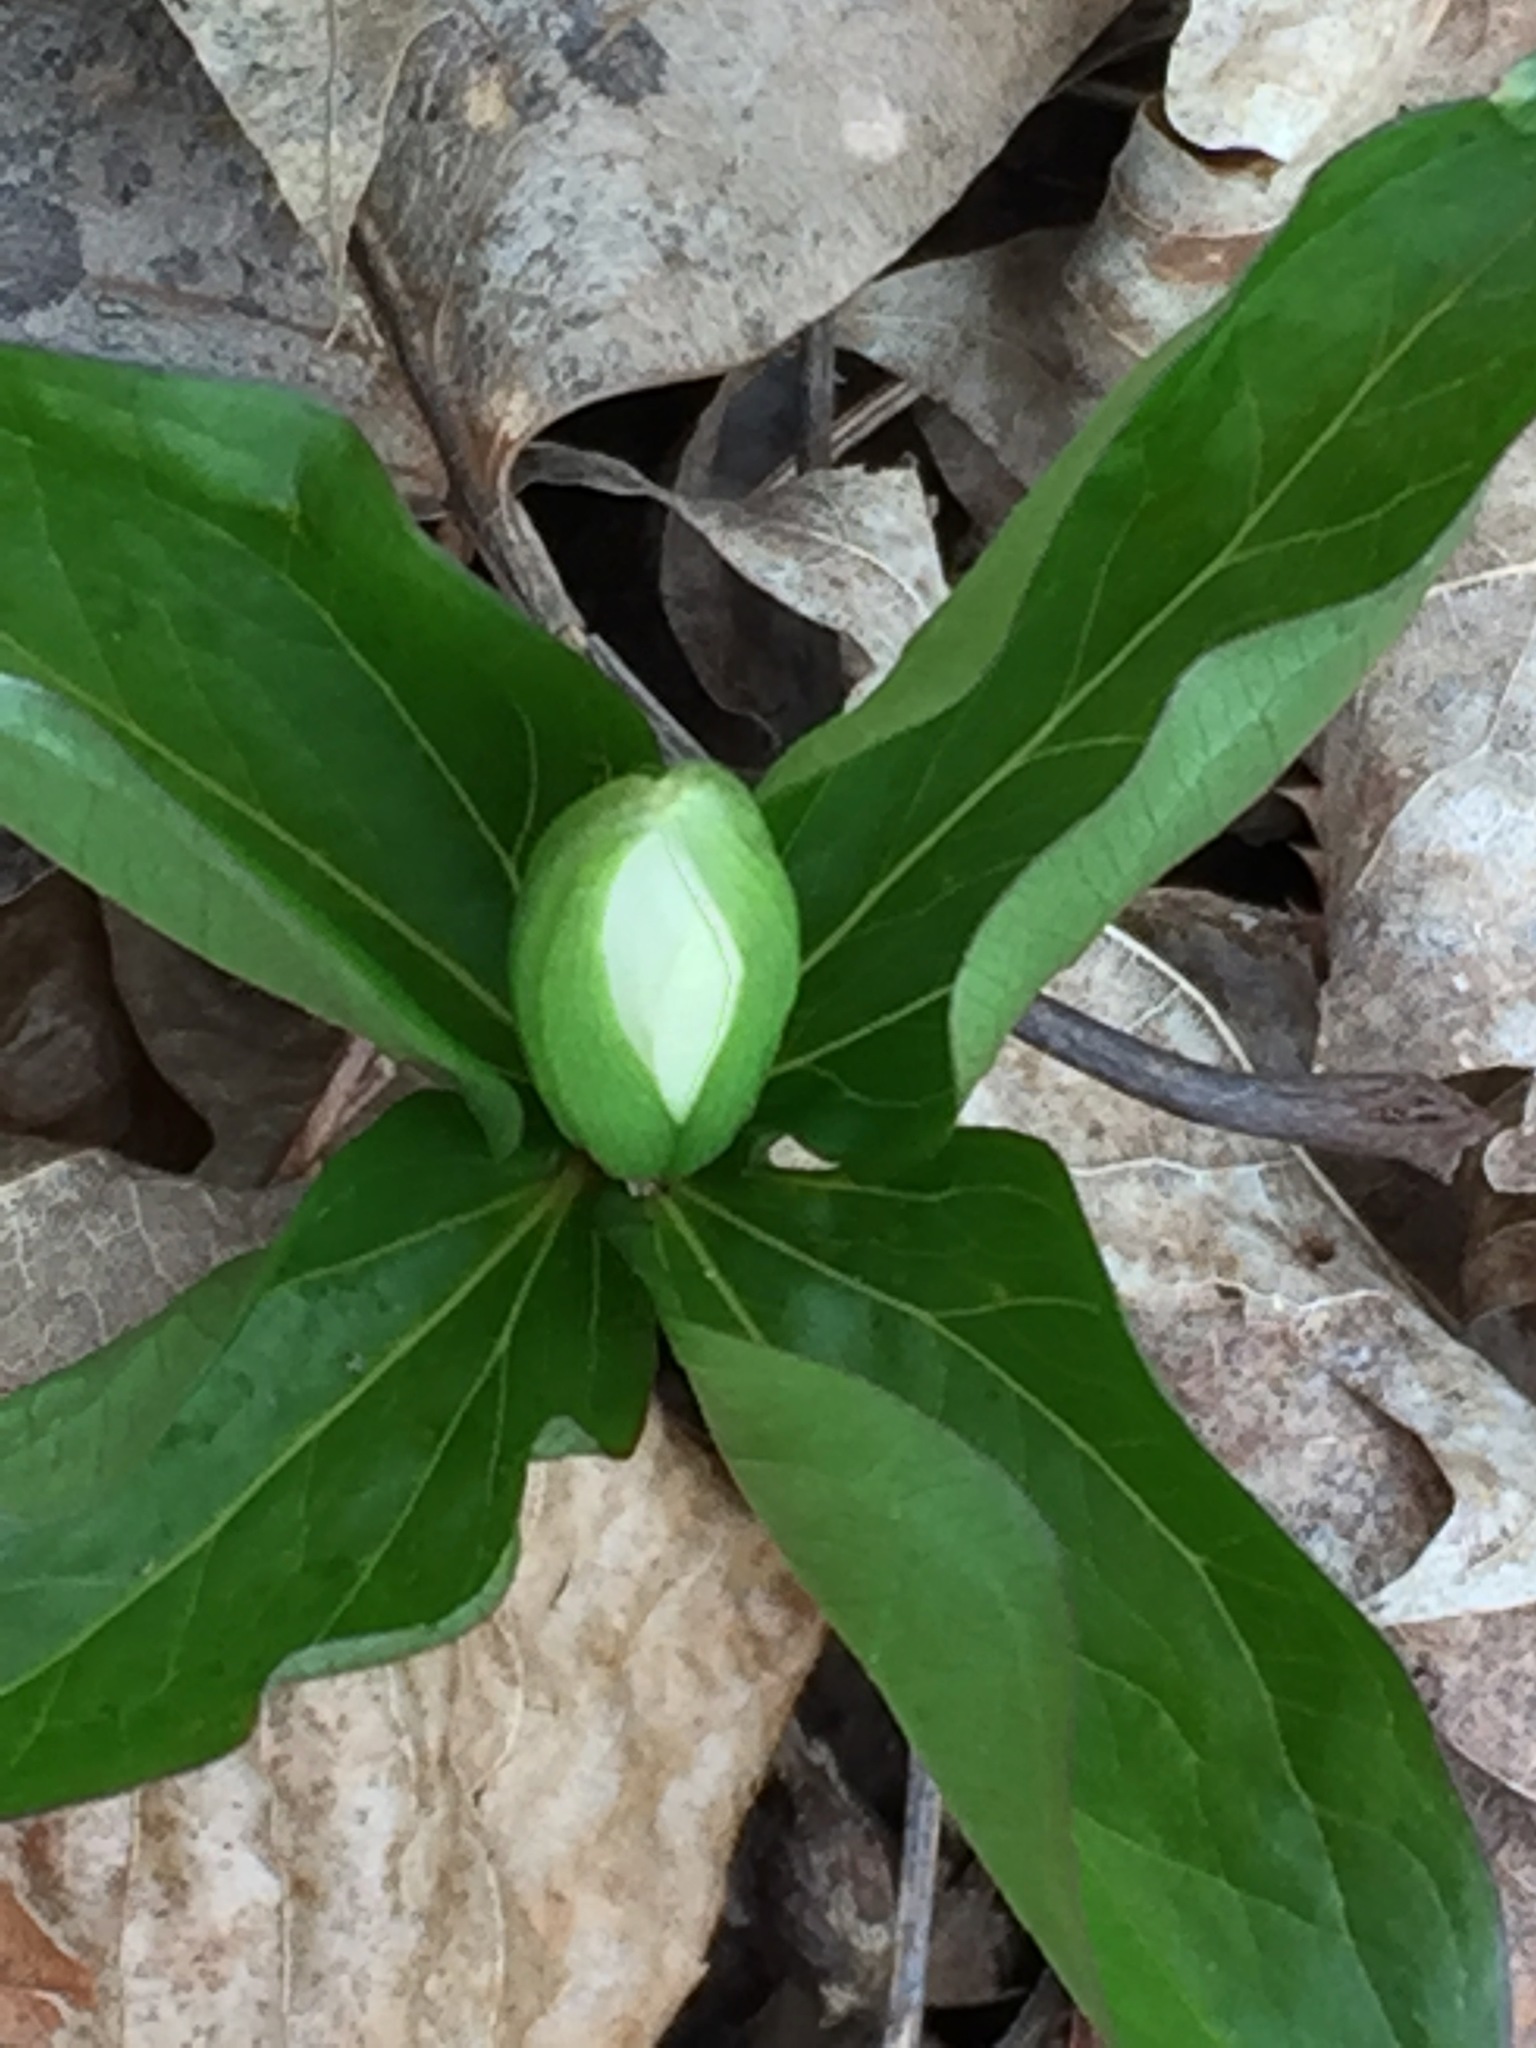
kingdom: Plantae
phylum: Tracheophyta
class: Liliopsida
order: Liliales
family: Melanthiaceae
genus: Trillium
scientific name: Trillium grandiflorum
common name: Great white trillium
